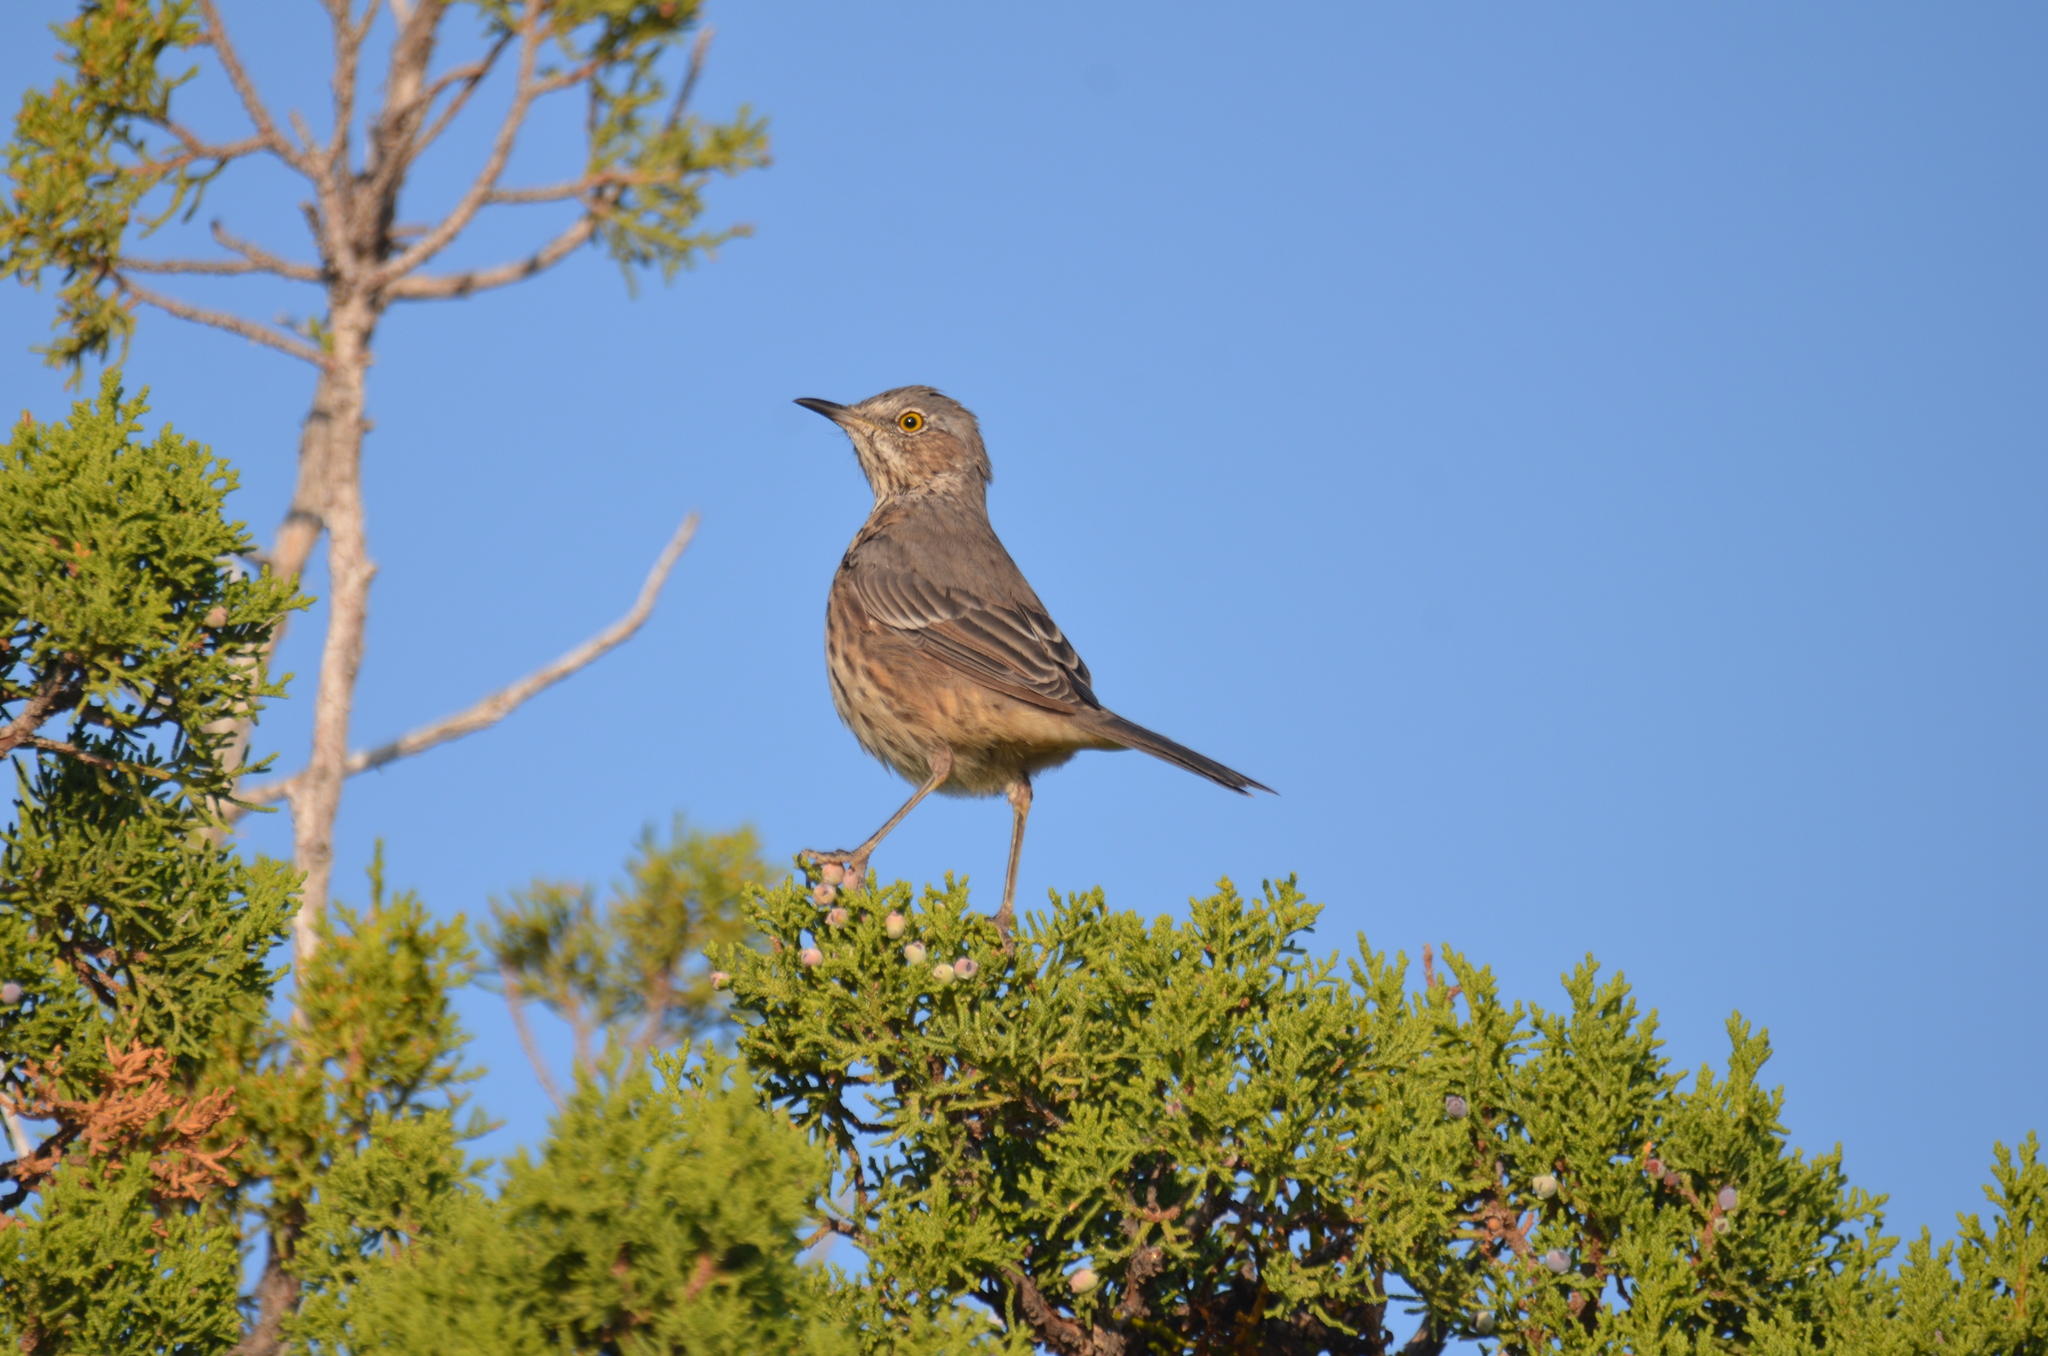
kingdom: Animalia
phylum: Chordata
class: Aves
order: Passeriformes
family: Mimidae
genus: Oreoscoptes
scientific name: Oreoscoptes montanus
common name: Sage thrasher
